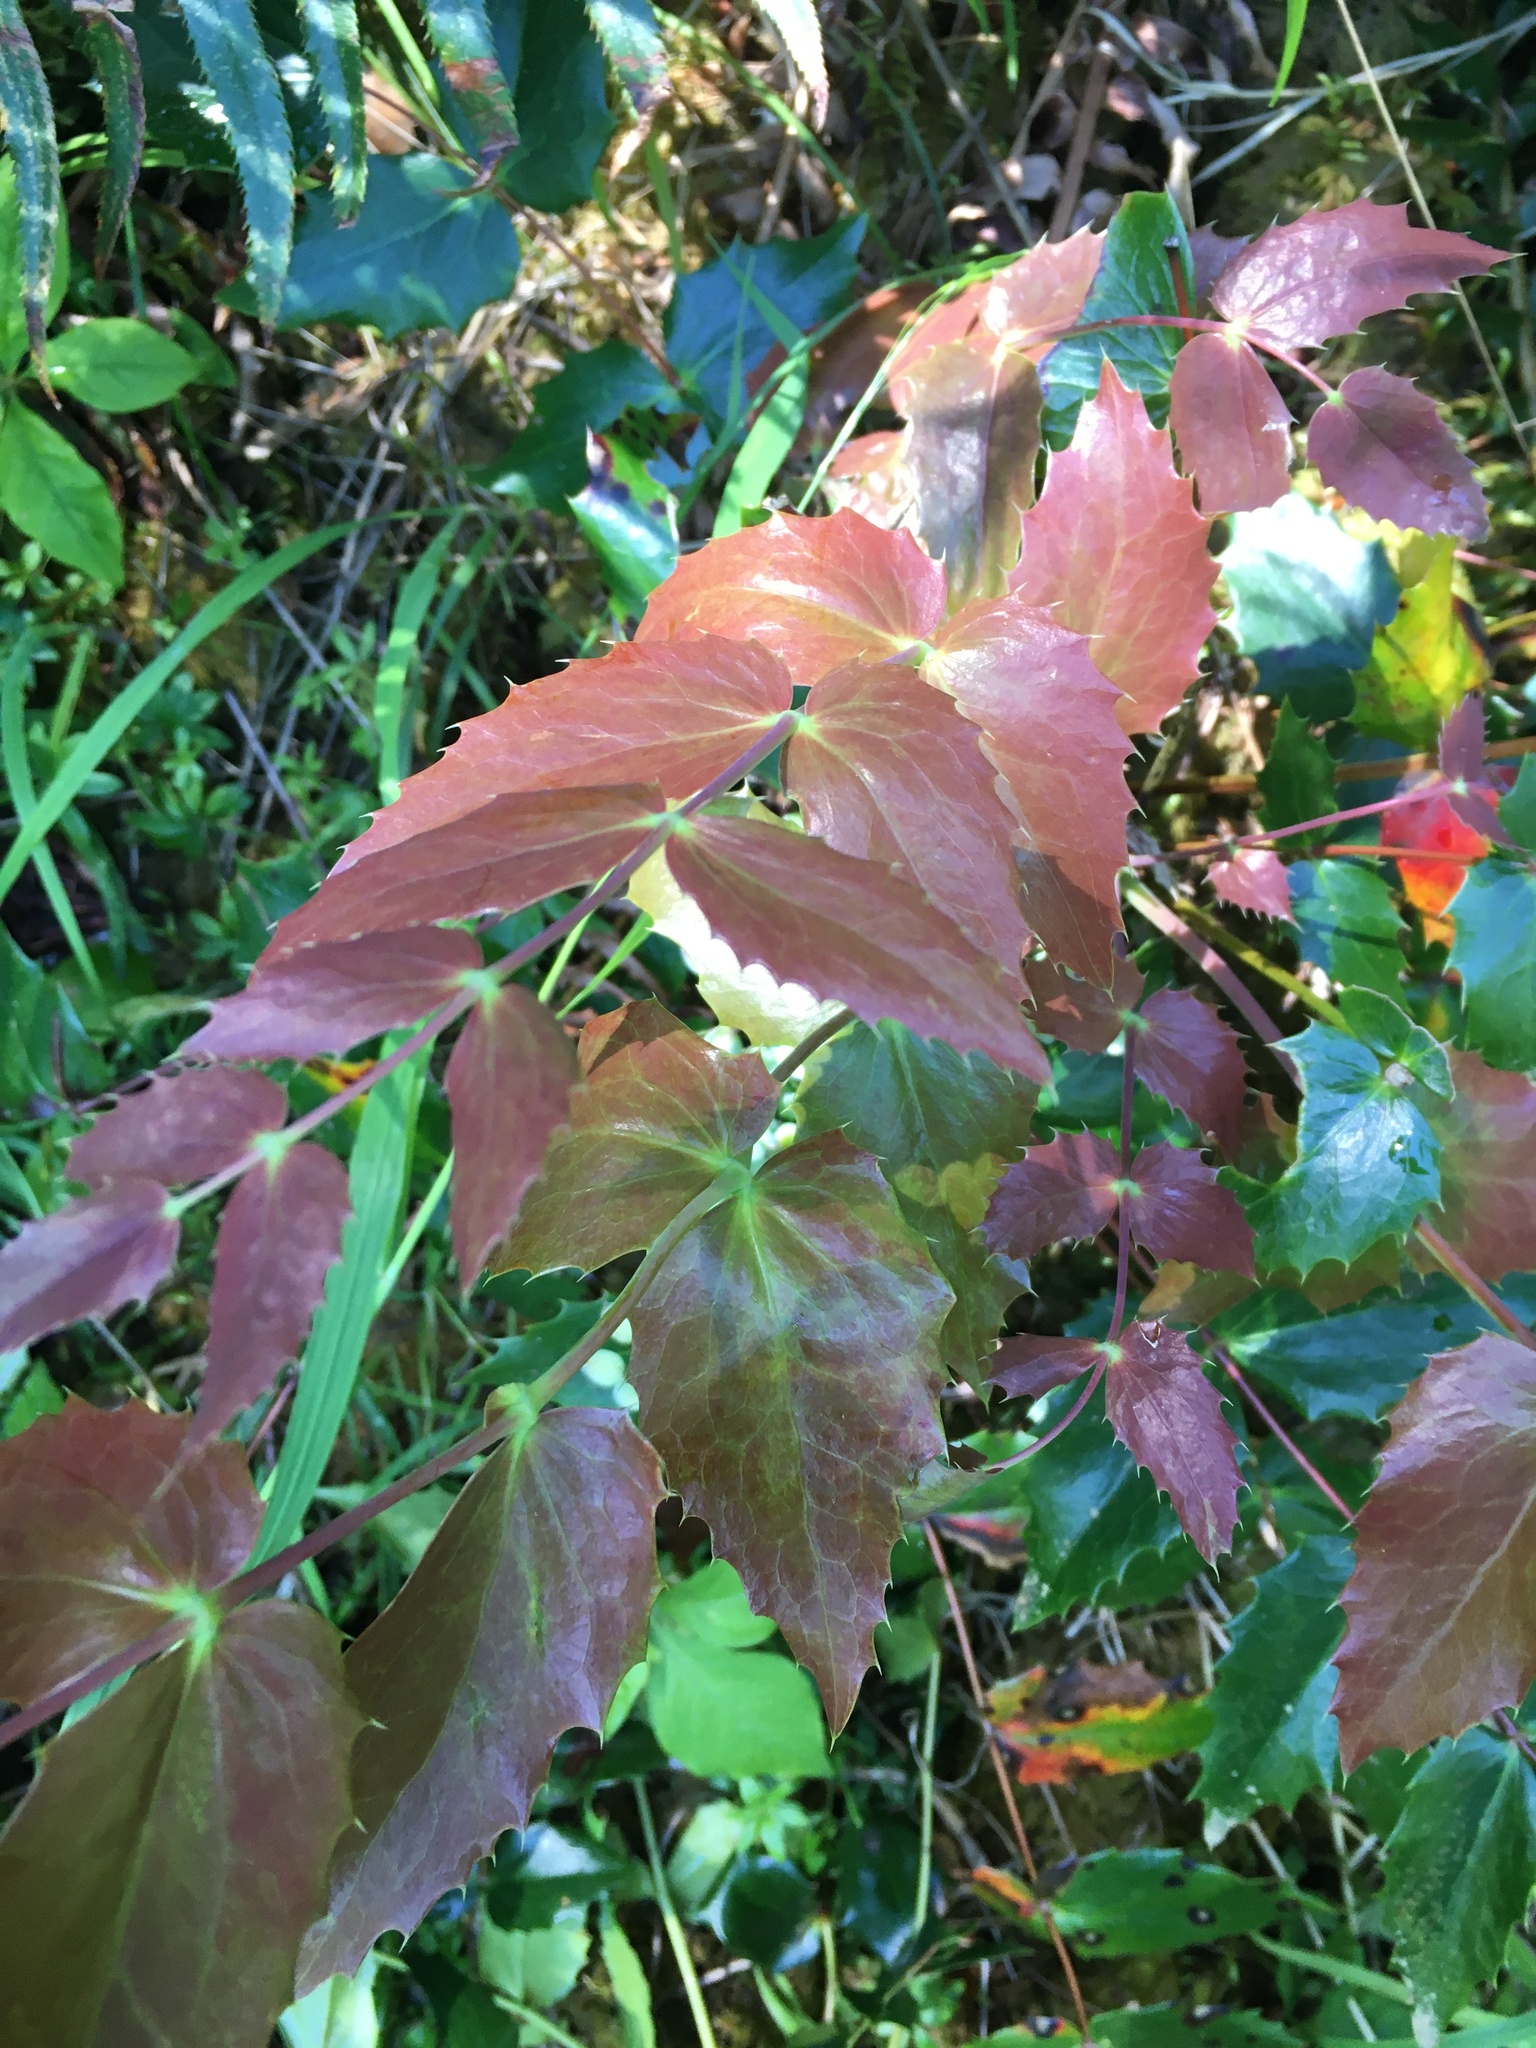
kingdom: Plantae
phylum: Tracheophyta
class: Magnoliopsida
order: Ranunculales
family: Berberidaceae
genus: Mahonia
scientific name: Mahonia nervosa
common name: Cascade oregon-grape
